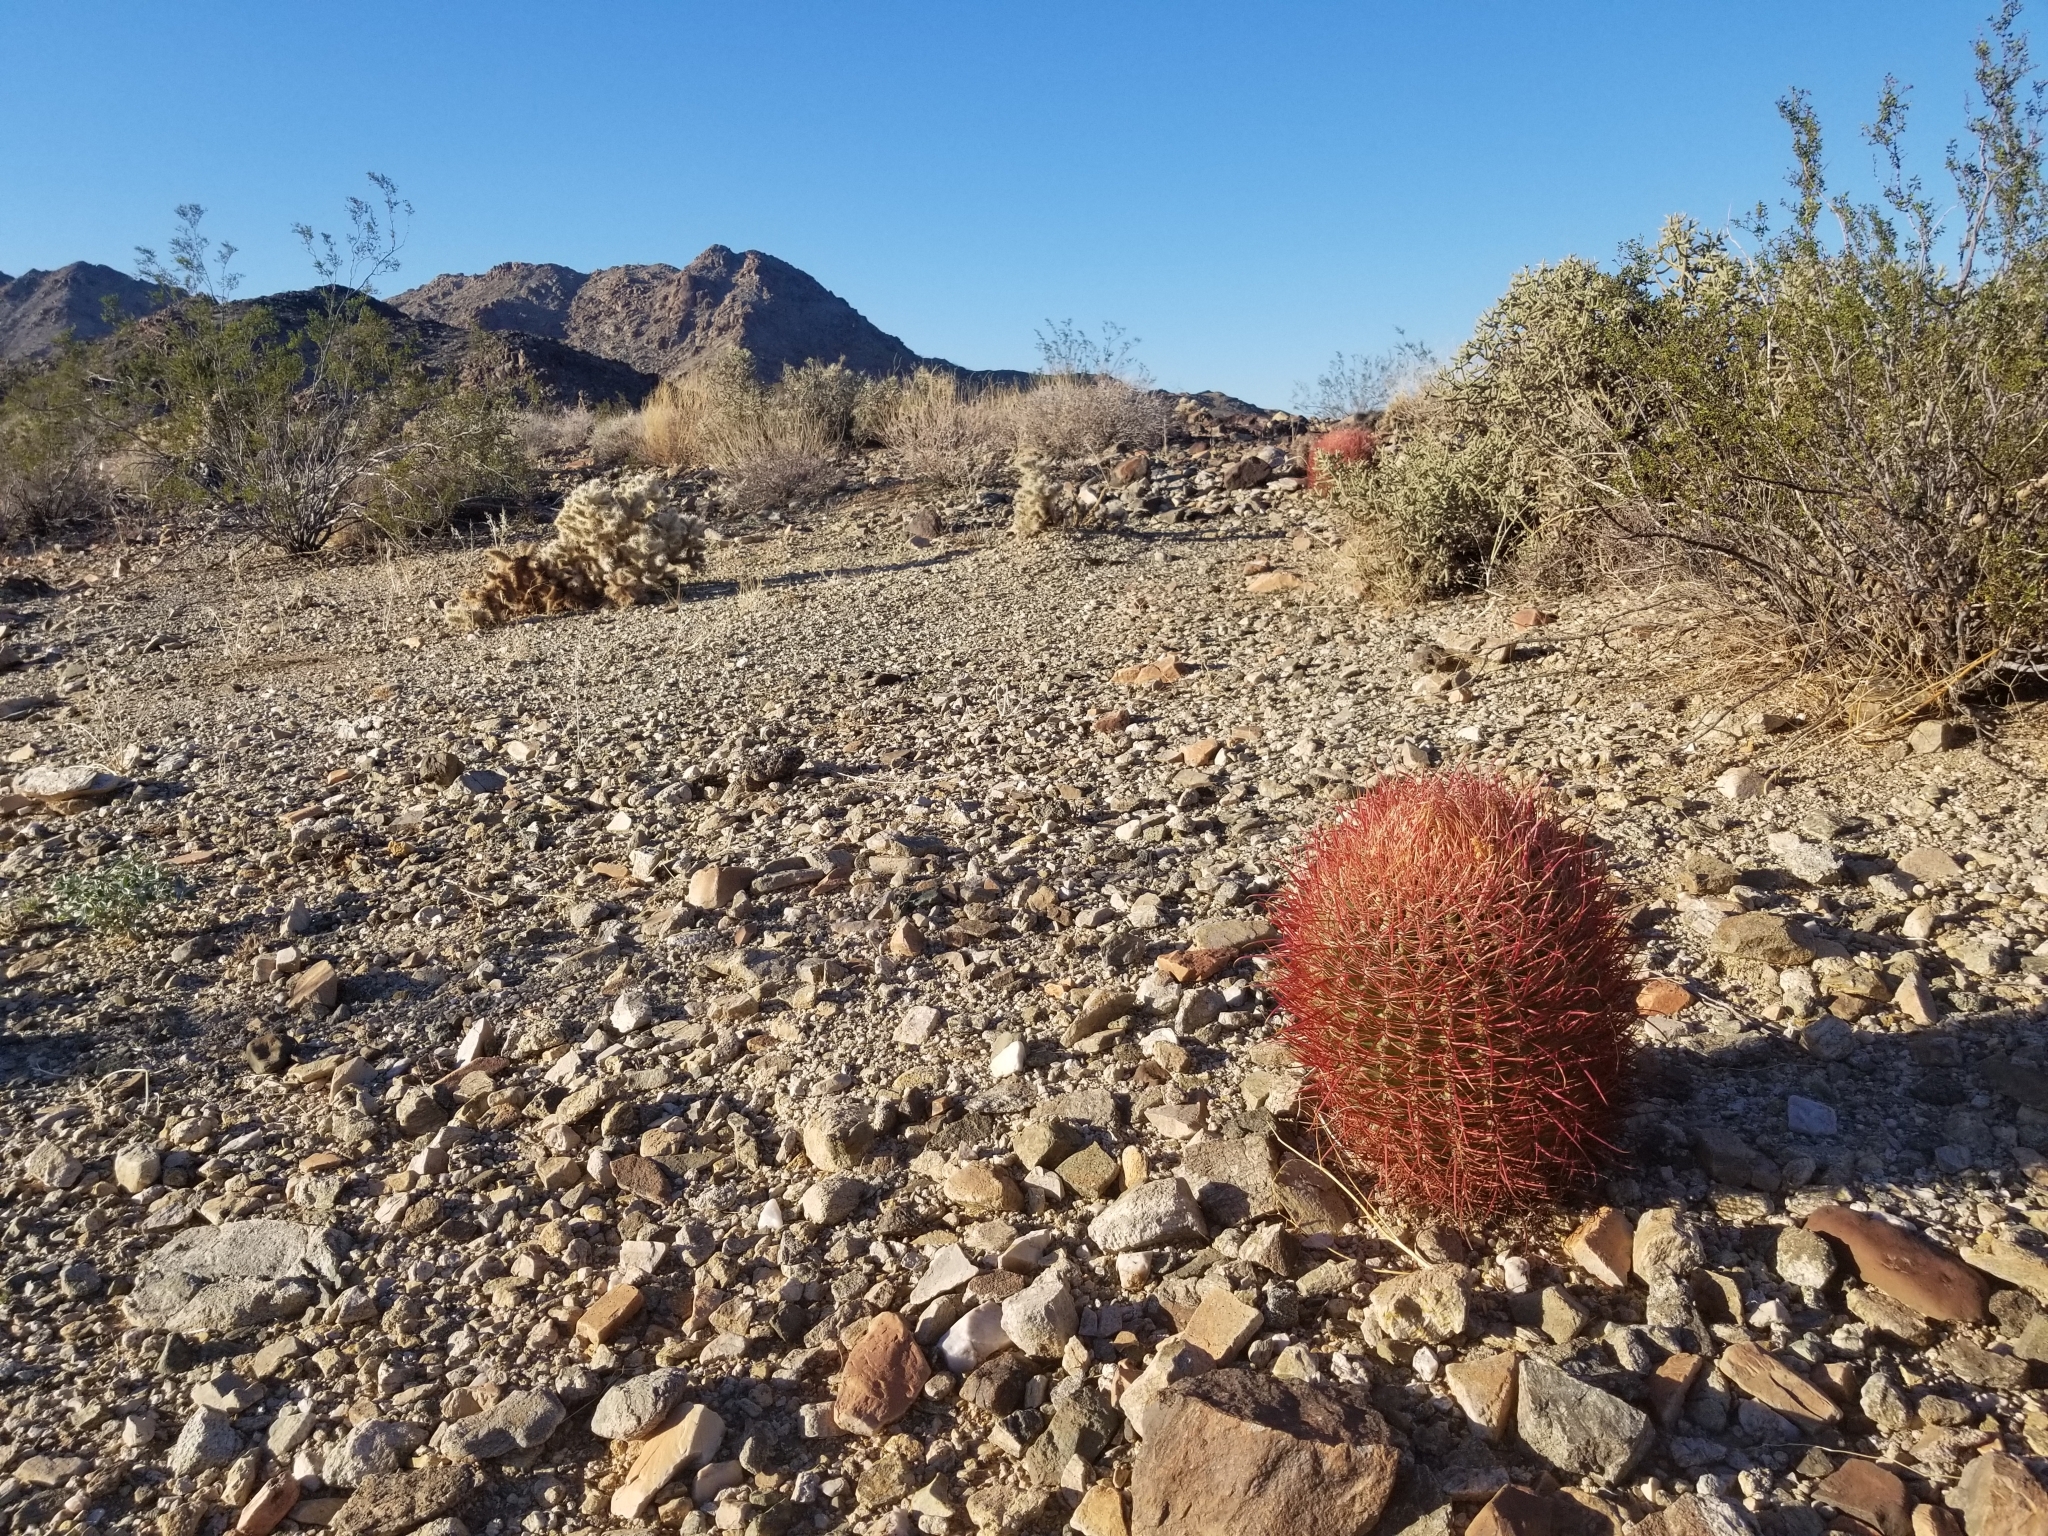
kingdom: Plantae
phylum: Tracheophyta
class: Magnoliopsida
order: Caryophyllales
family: Cactaceae
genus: Ferocactus
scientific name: Ferocactus cylindraceus
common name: California barrel cactus
